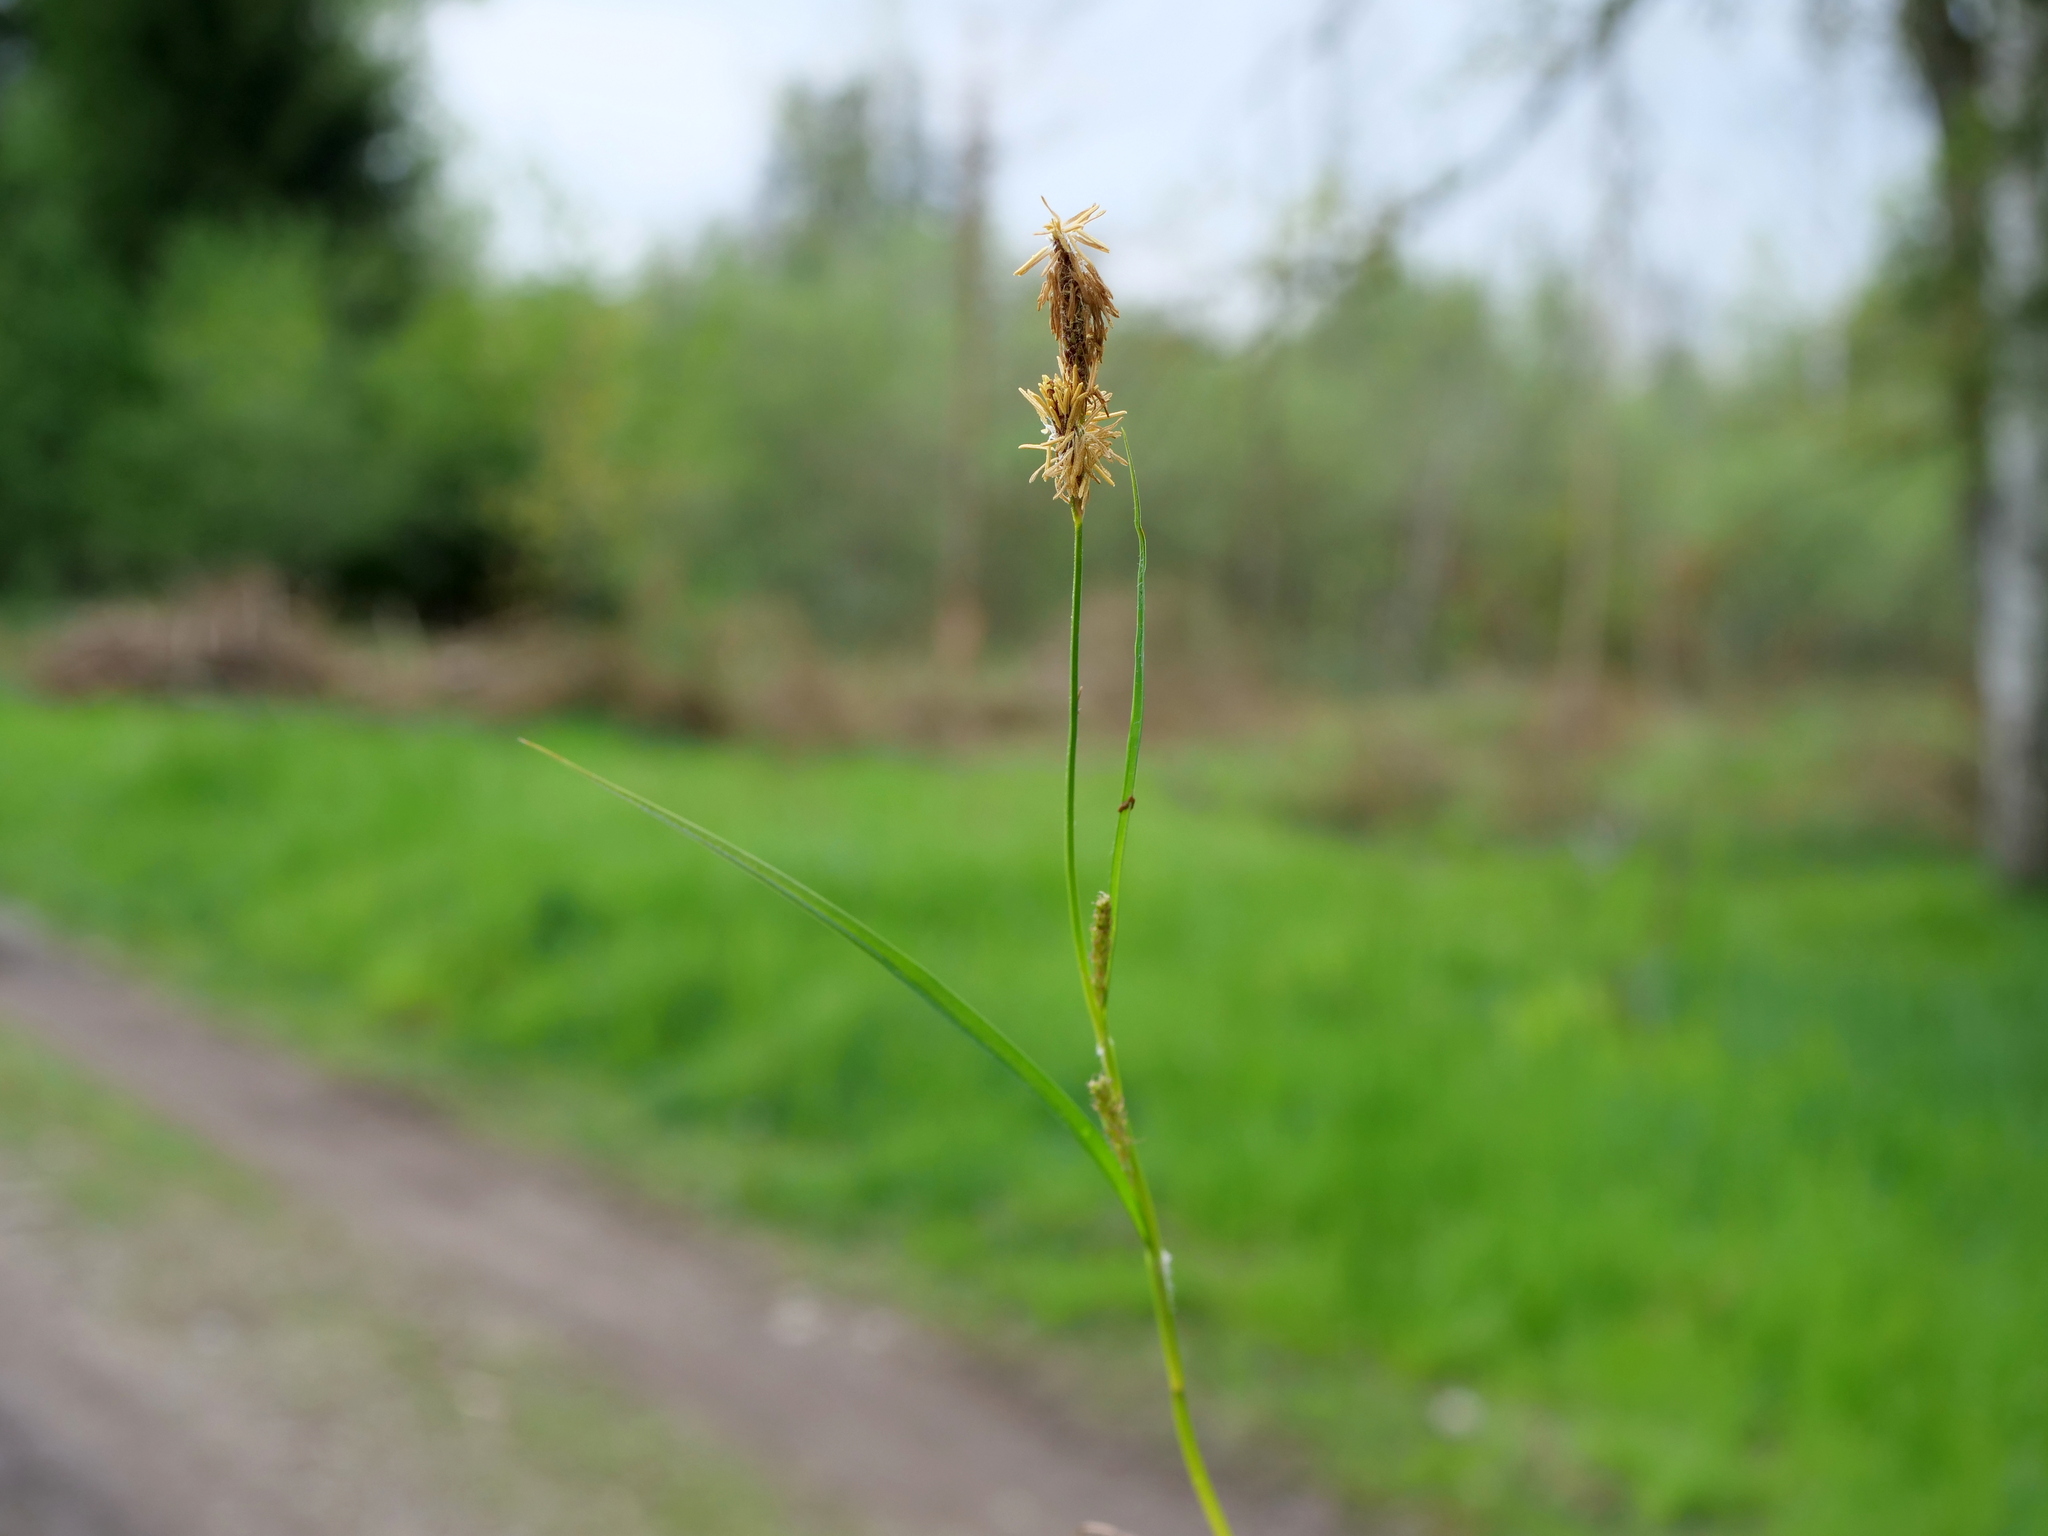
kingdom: Plantae
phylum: Tracheophyta
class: Liliopsida
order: Poales
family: Cyperaceae
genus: Carex
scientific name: Carex hirta
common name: Hairy sedge
